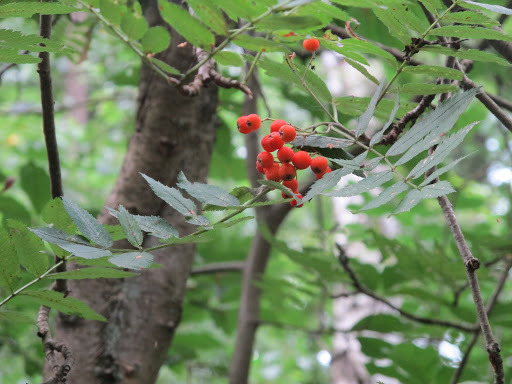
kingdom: Plantae
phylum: Tracheophyta
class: Magnoliopsida
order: Rosales
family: Rosaceae
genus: Sorbus
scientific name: Sorbus aucuparia
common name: Rowan
